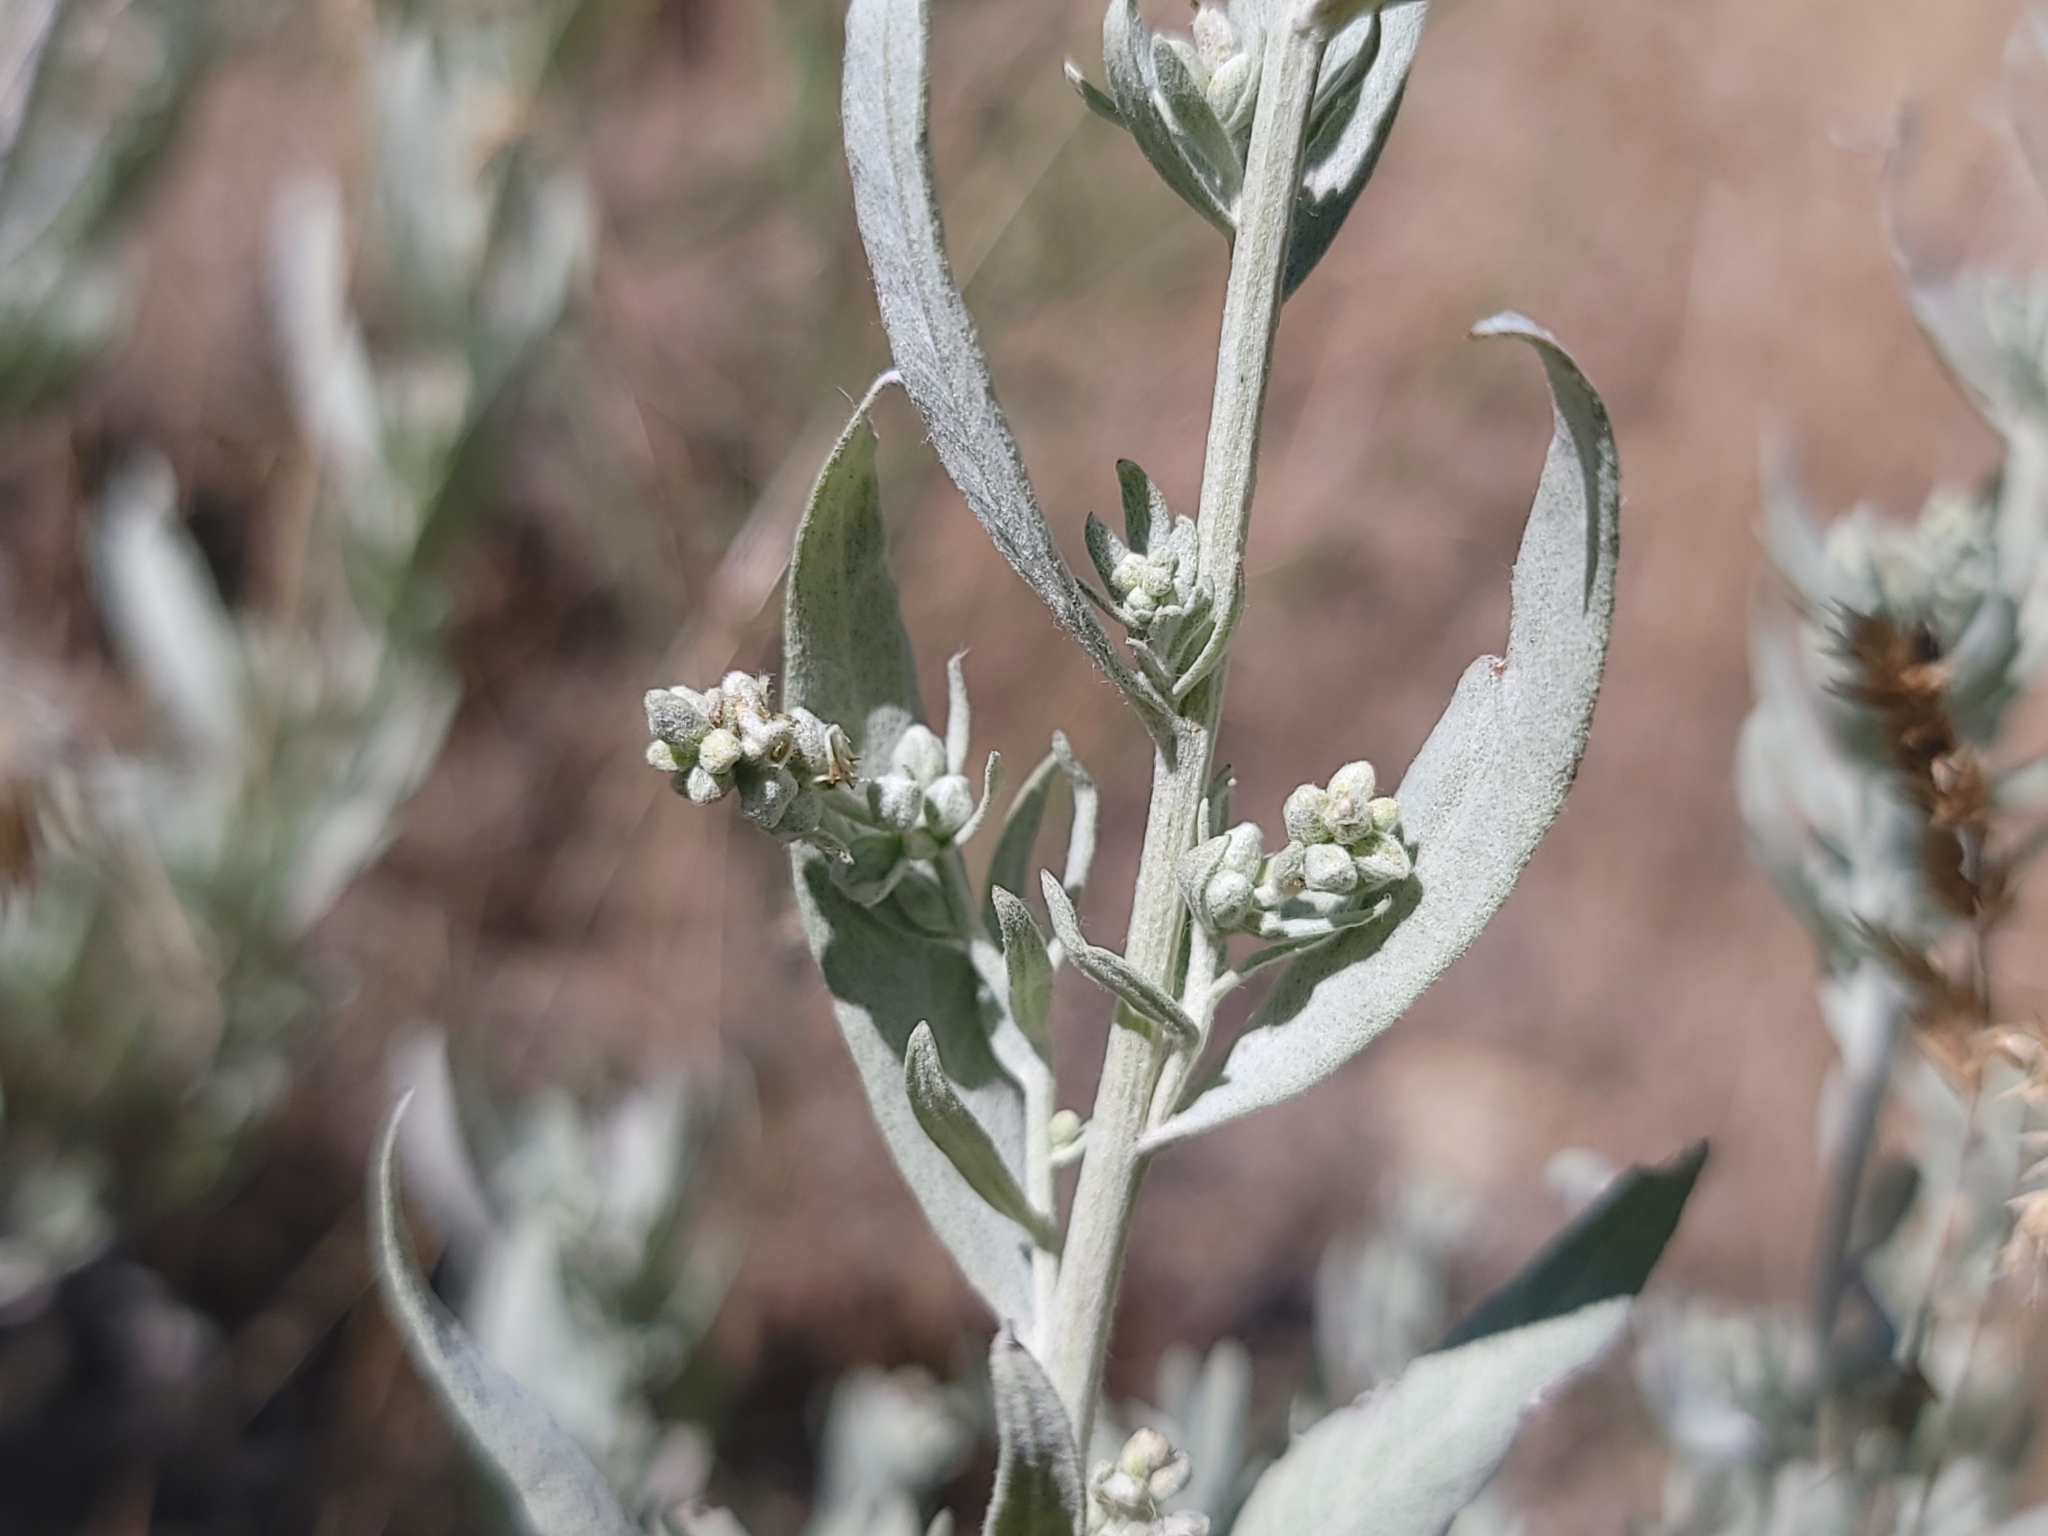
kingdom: Plantae
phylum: Tracheophyta
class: Magnoliopsida
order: Asterales
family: Asteraceae
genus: Artemisia
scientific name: Artemisia ludoviciana
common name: Western mugwort
